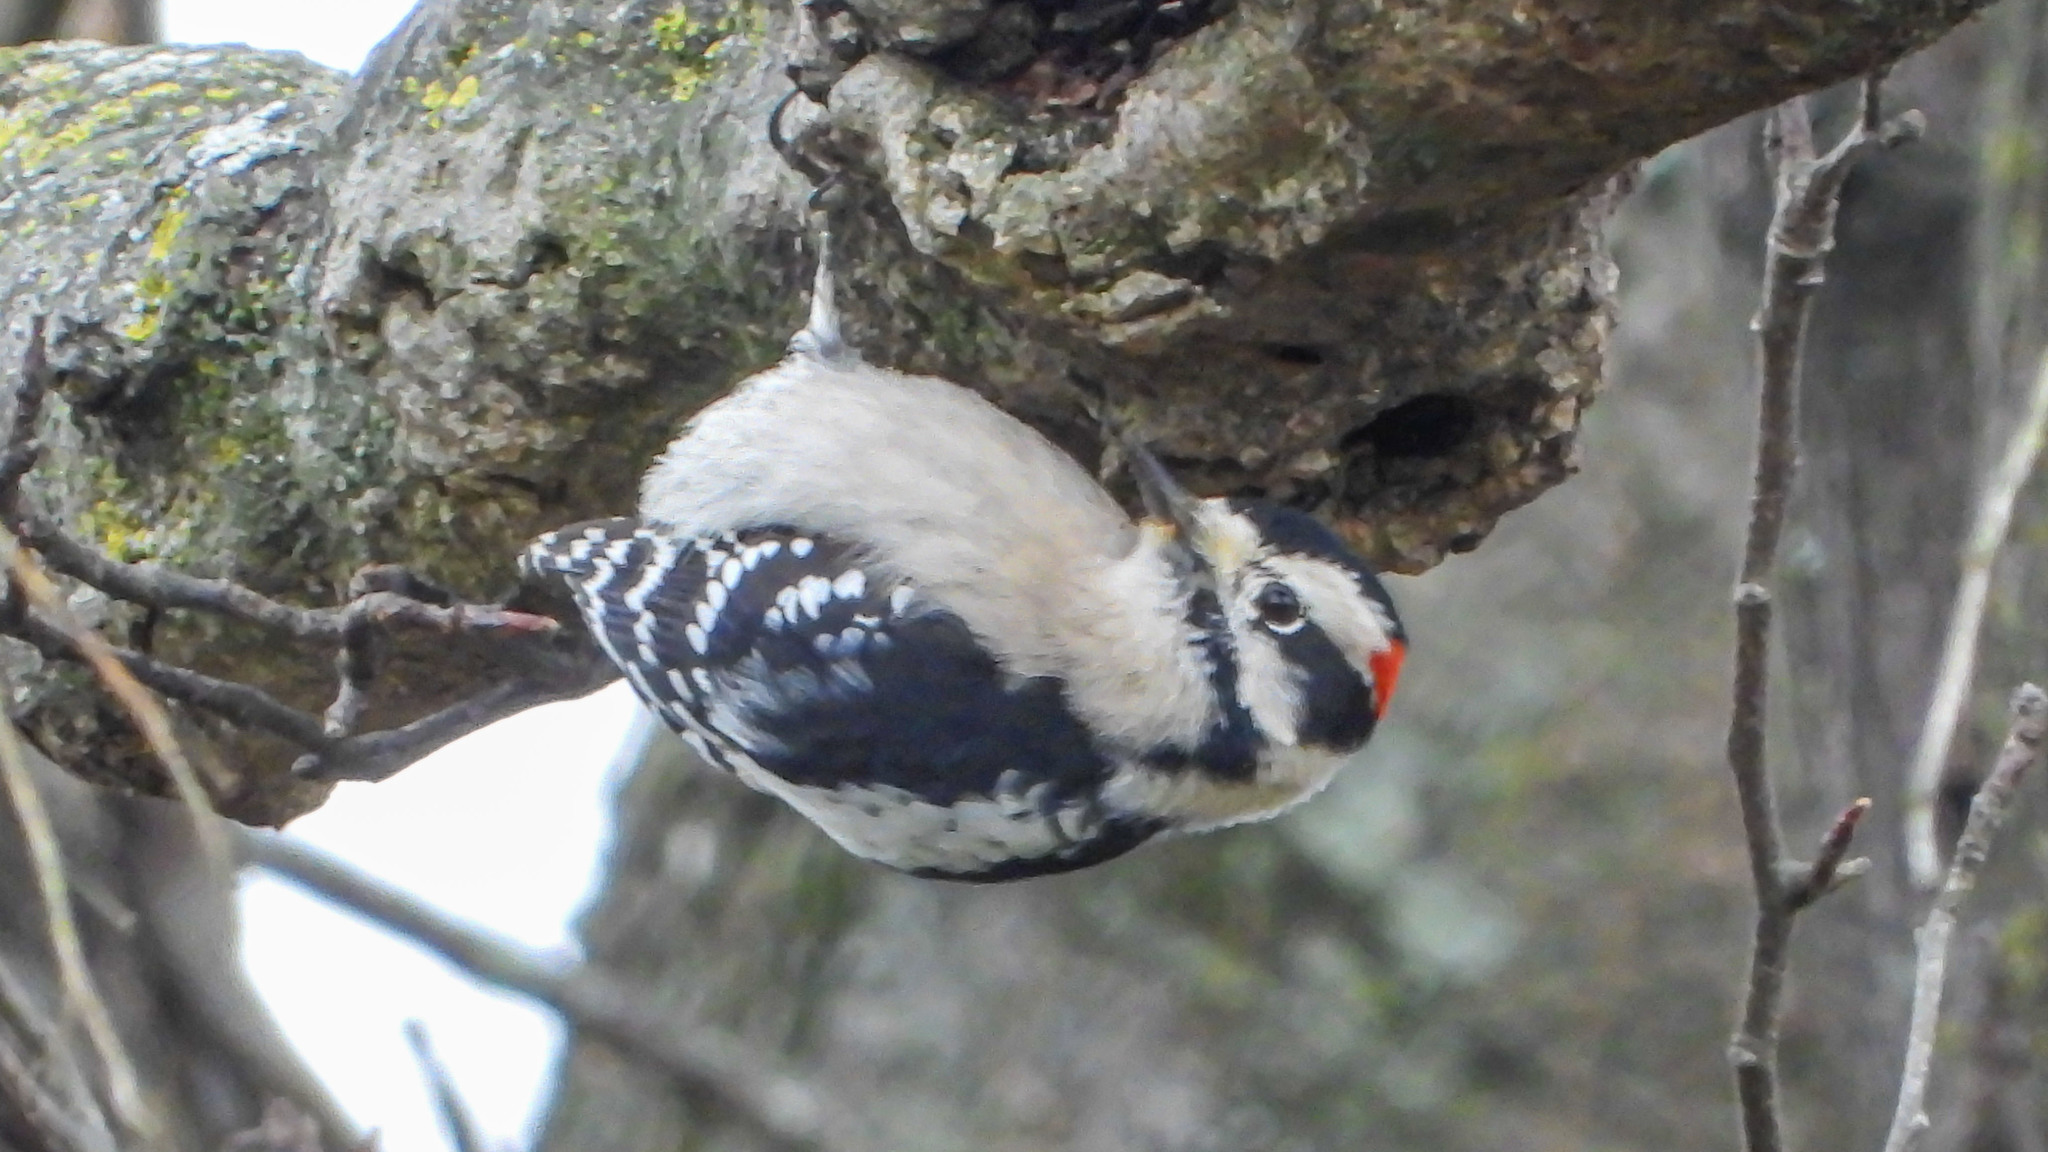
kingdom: Animalia
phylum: Chordata
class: Aves
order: Piciformes
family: Picidae
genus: Dryobates
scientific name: Dryobates pubescens
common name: Downy woodpecker
